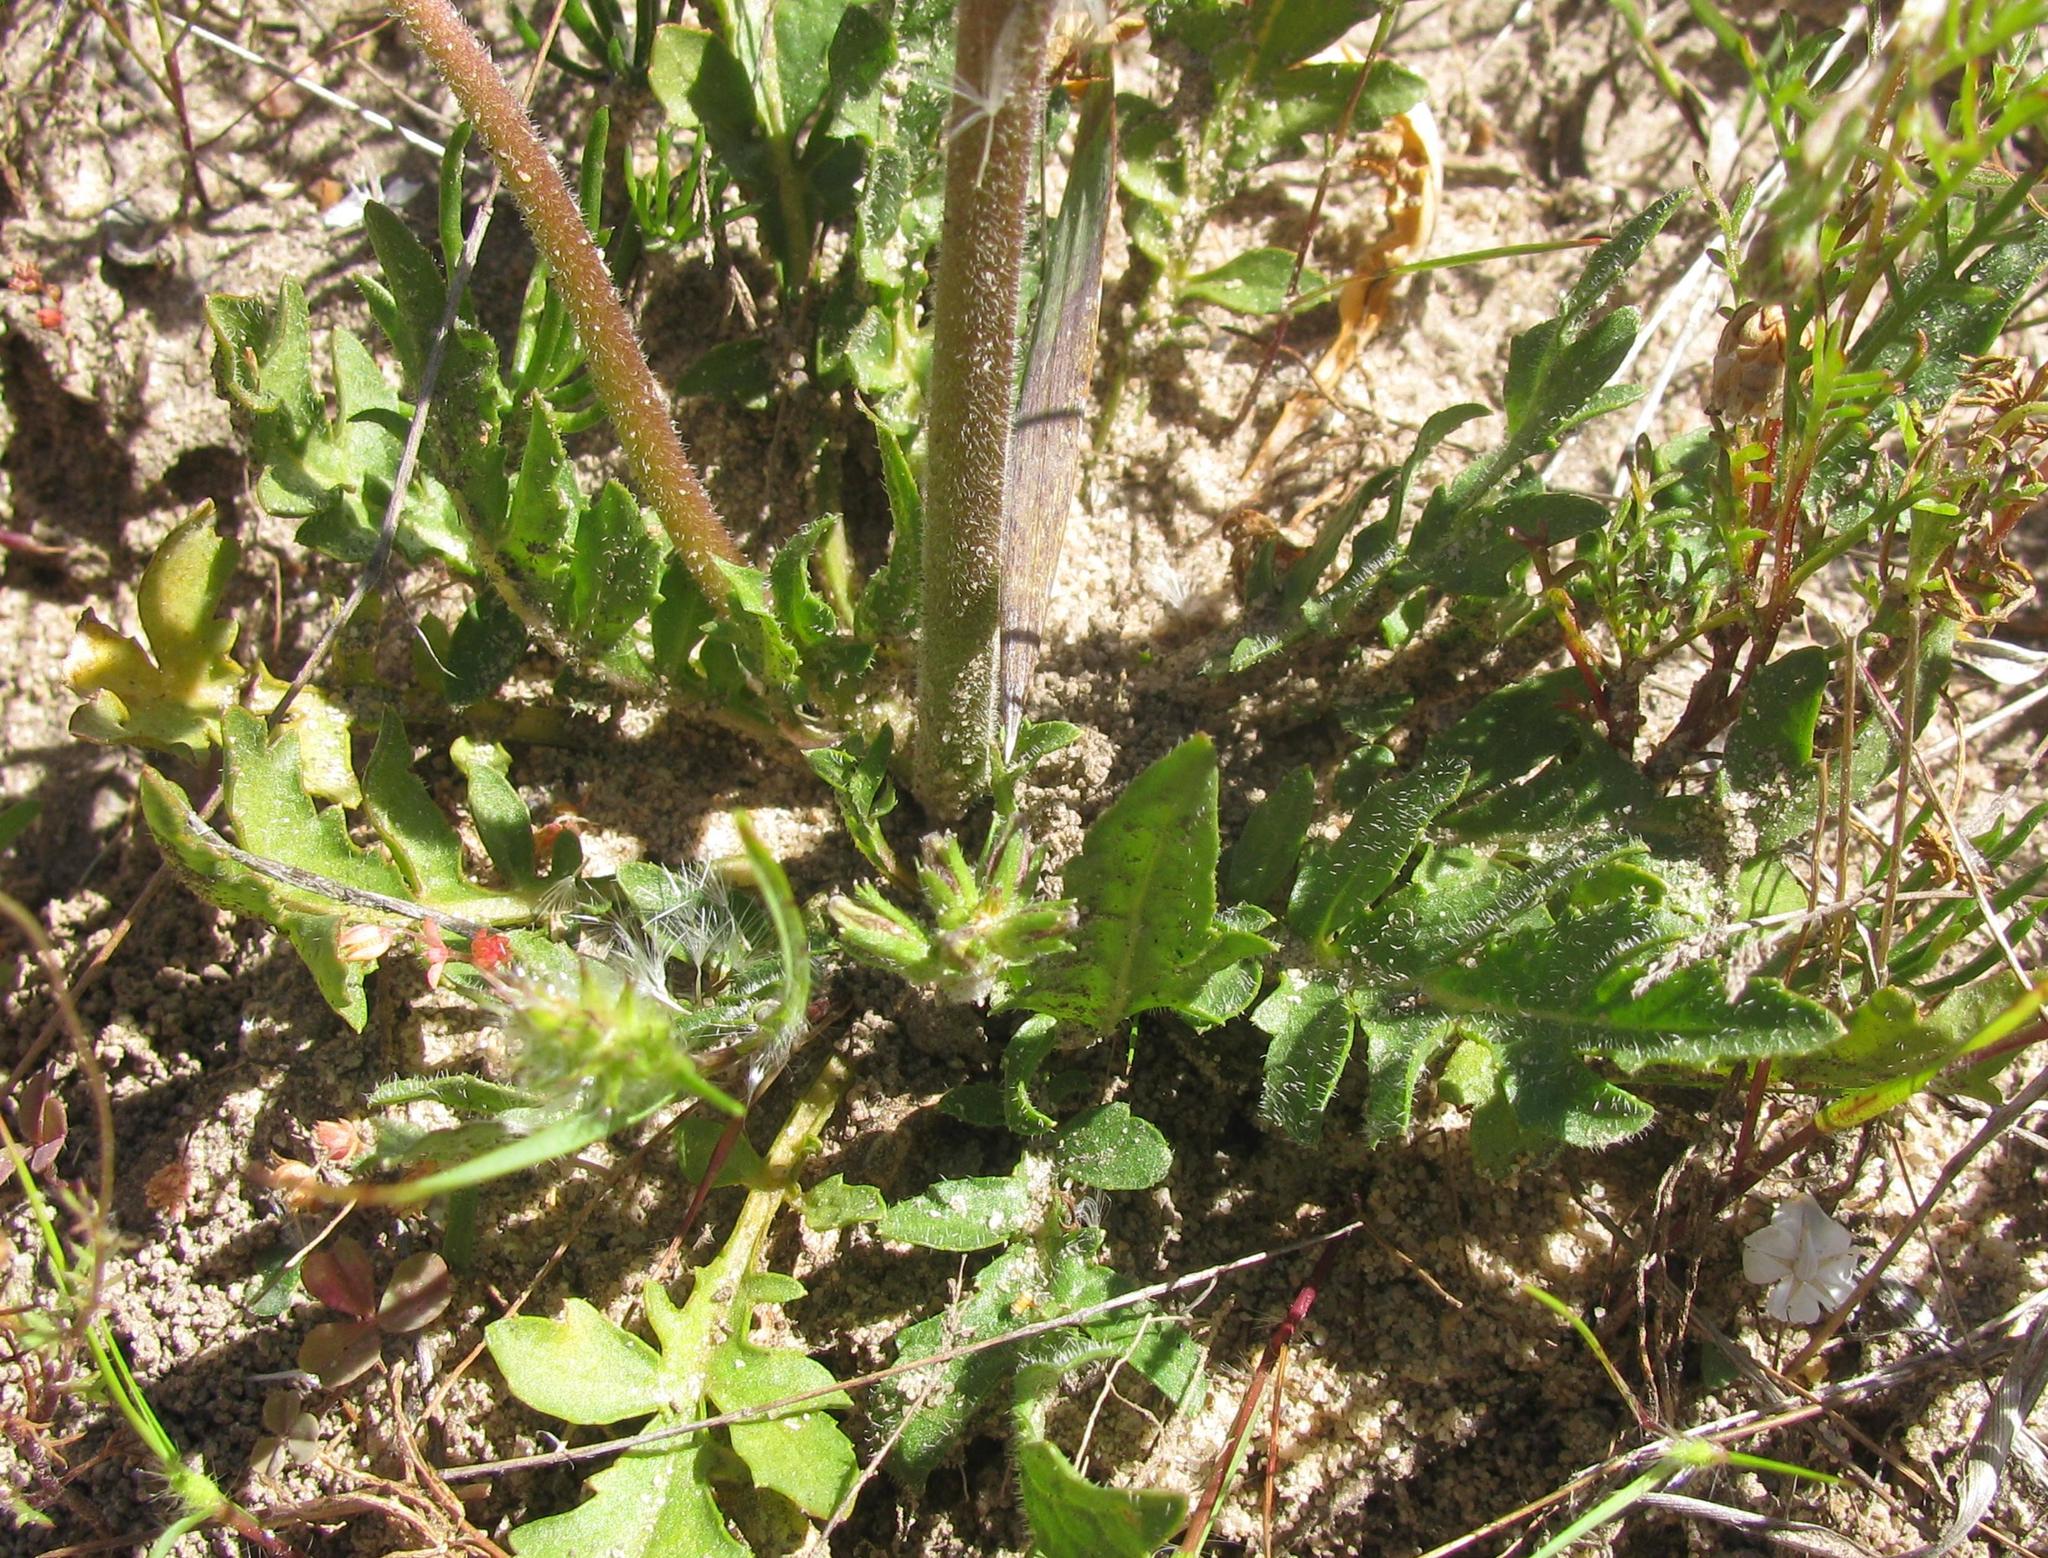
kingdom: Plantae
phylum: Tracheophyta
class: Magnoliopsida
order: Asterales
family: Campanulaceae
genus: Cyphia
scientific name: Cyphia incisa
